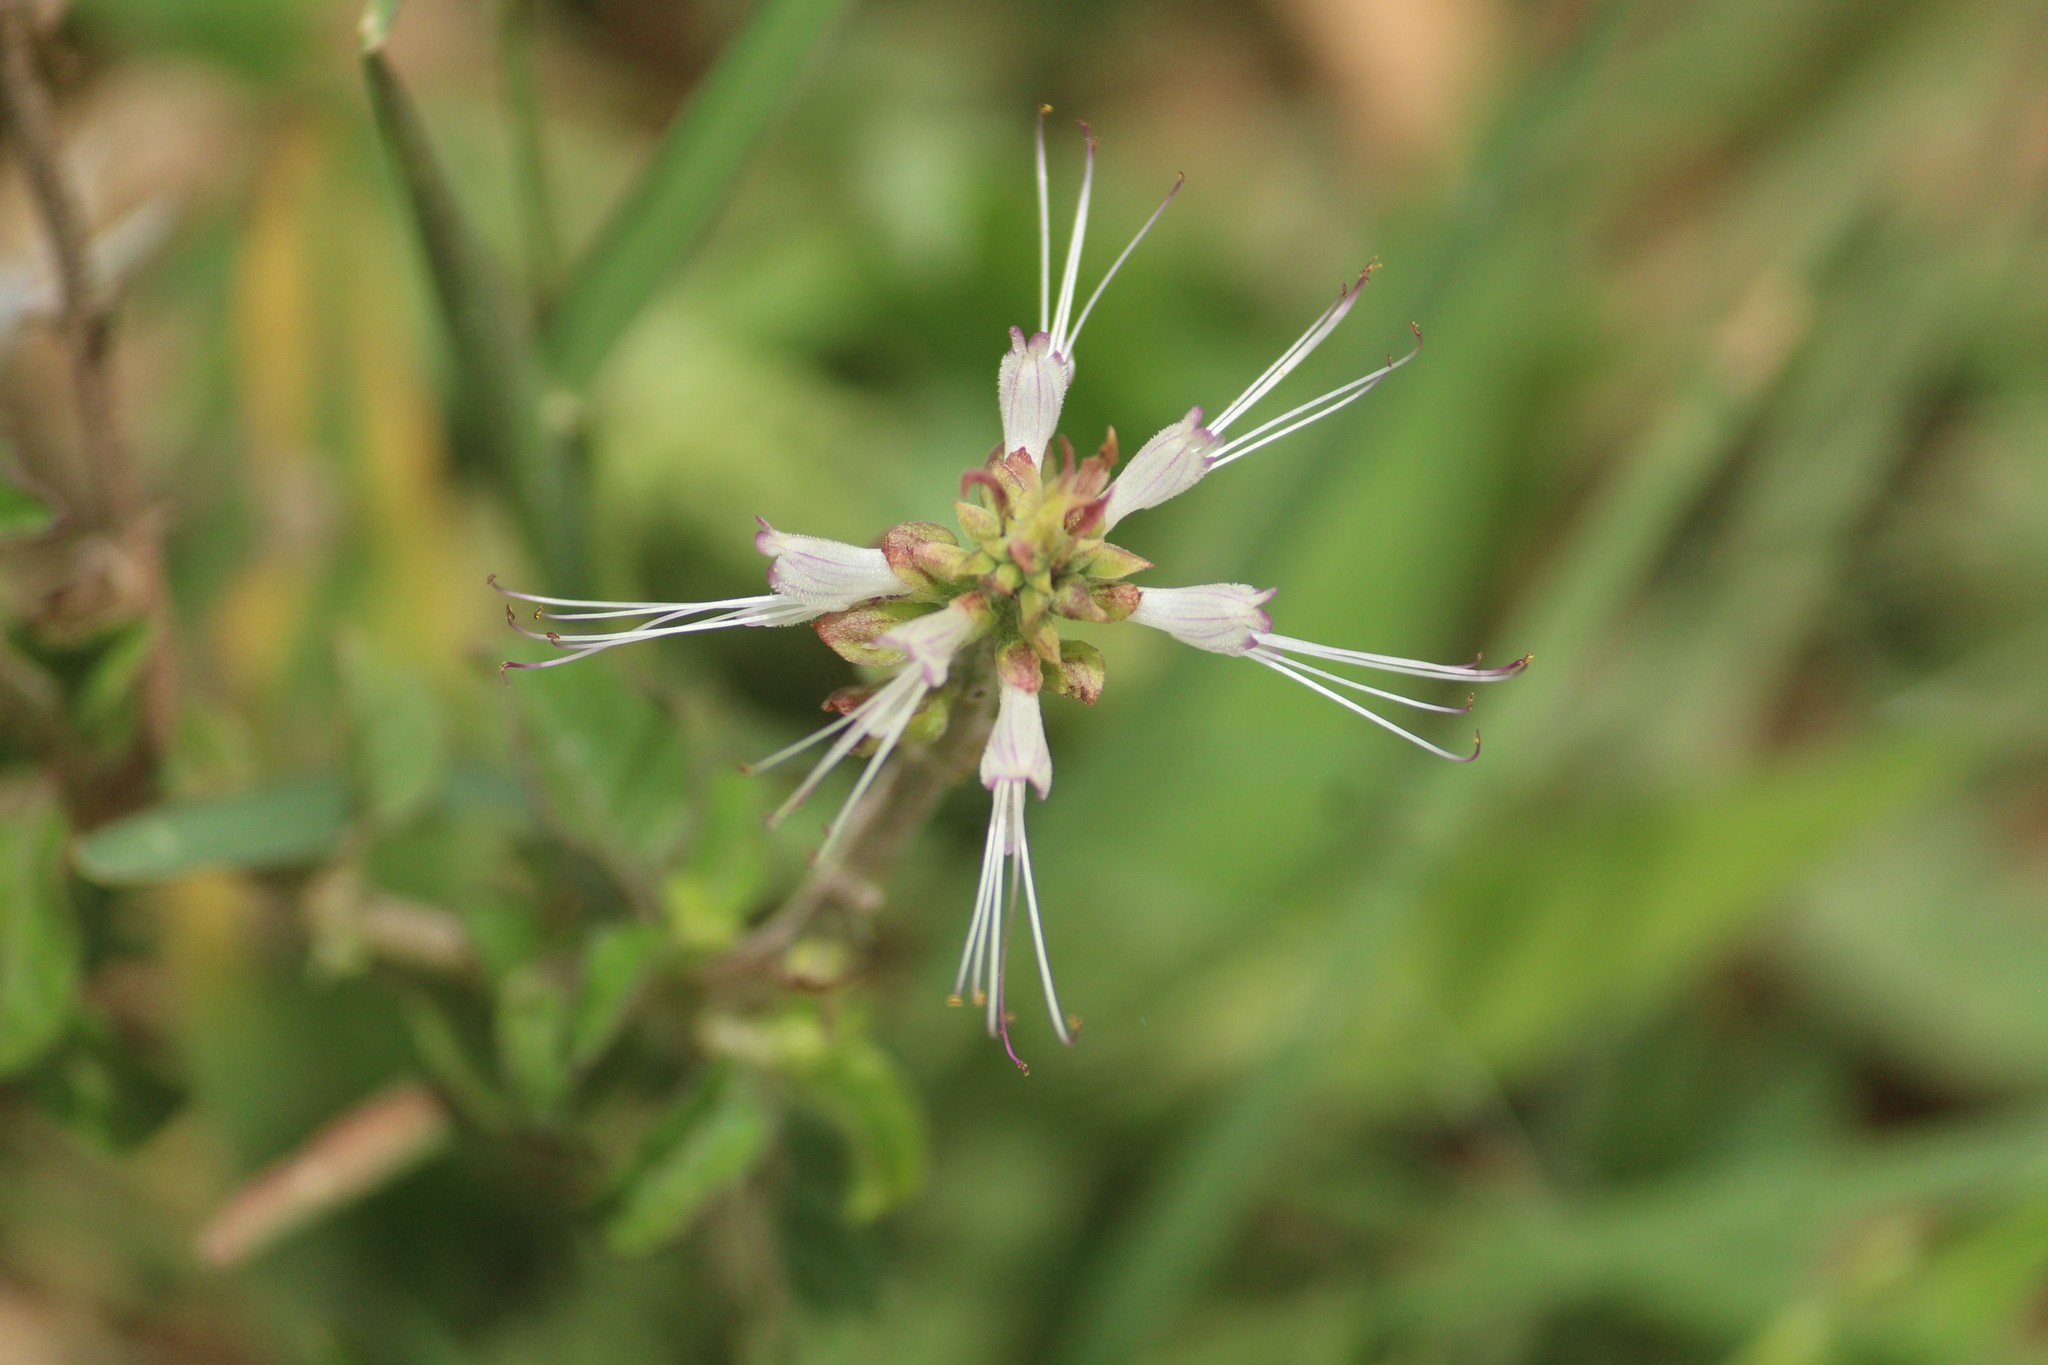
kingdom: Plantae
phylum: Tracheophyta
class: Magnoliopsida
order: Lamiales
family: Lamiaceae
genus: Orthosiphon
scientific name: Orthosiphon aristatus
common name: Whiskerplant
